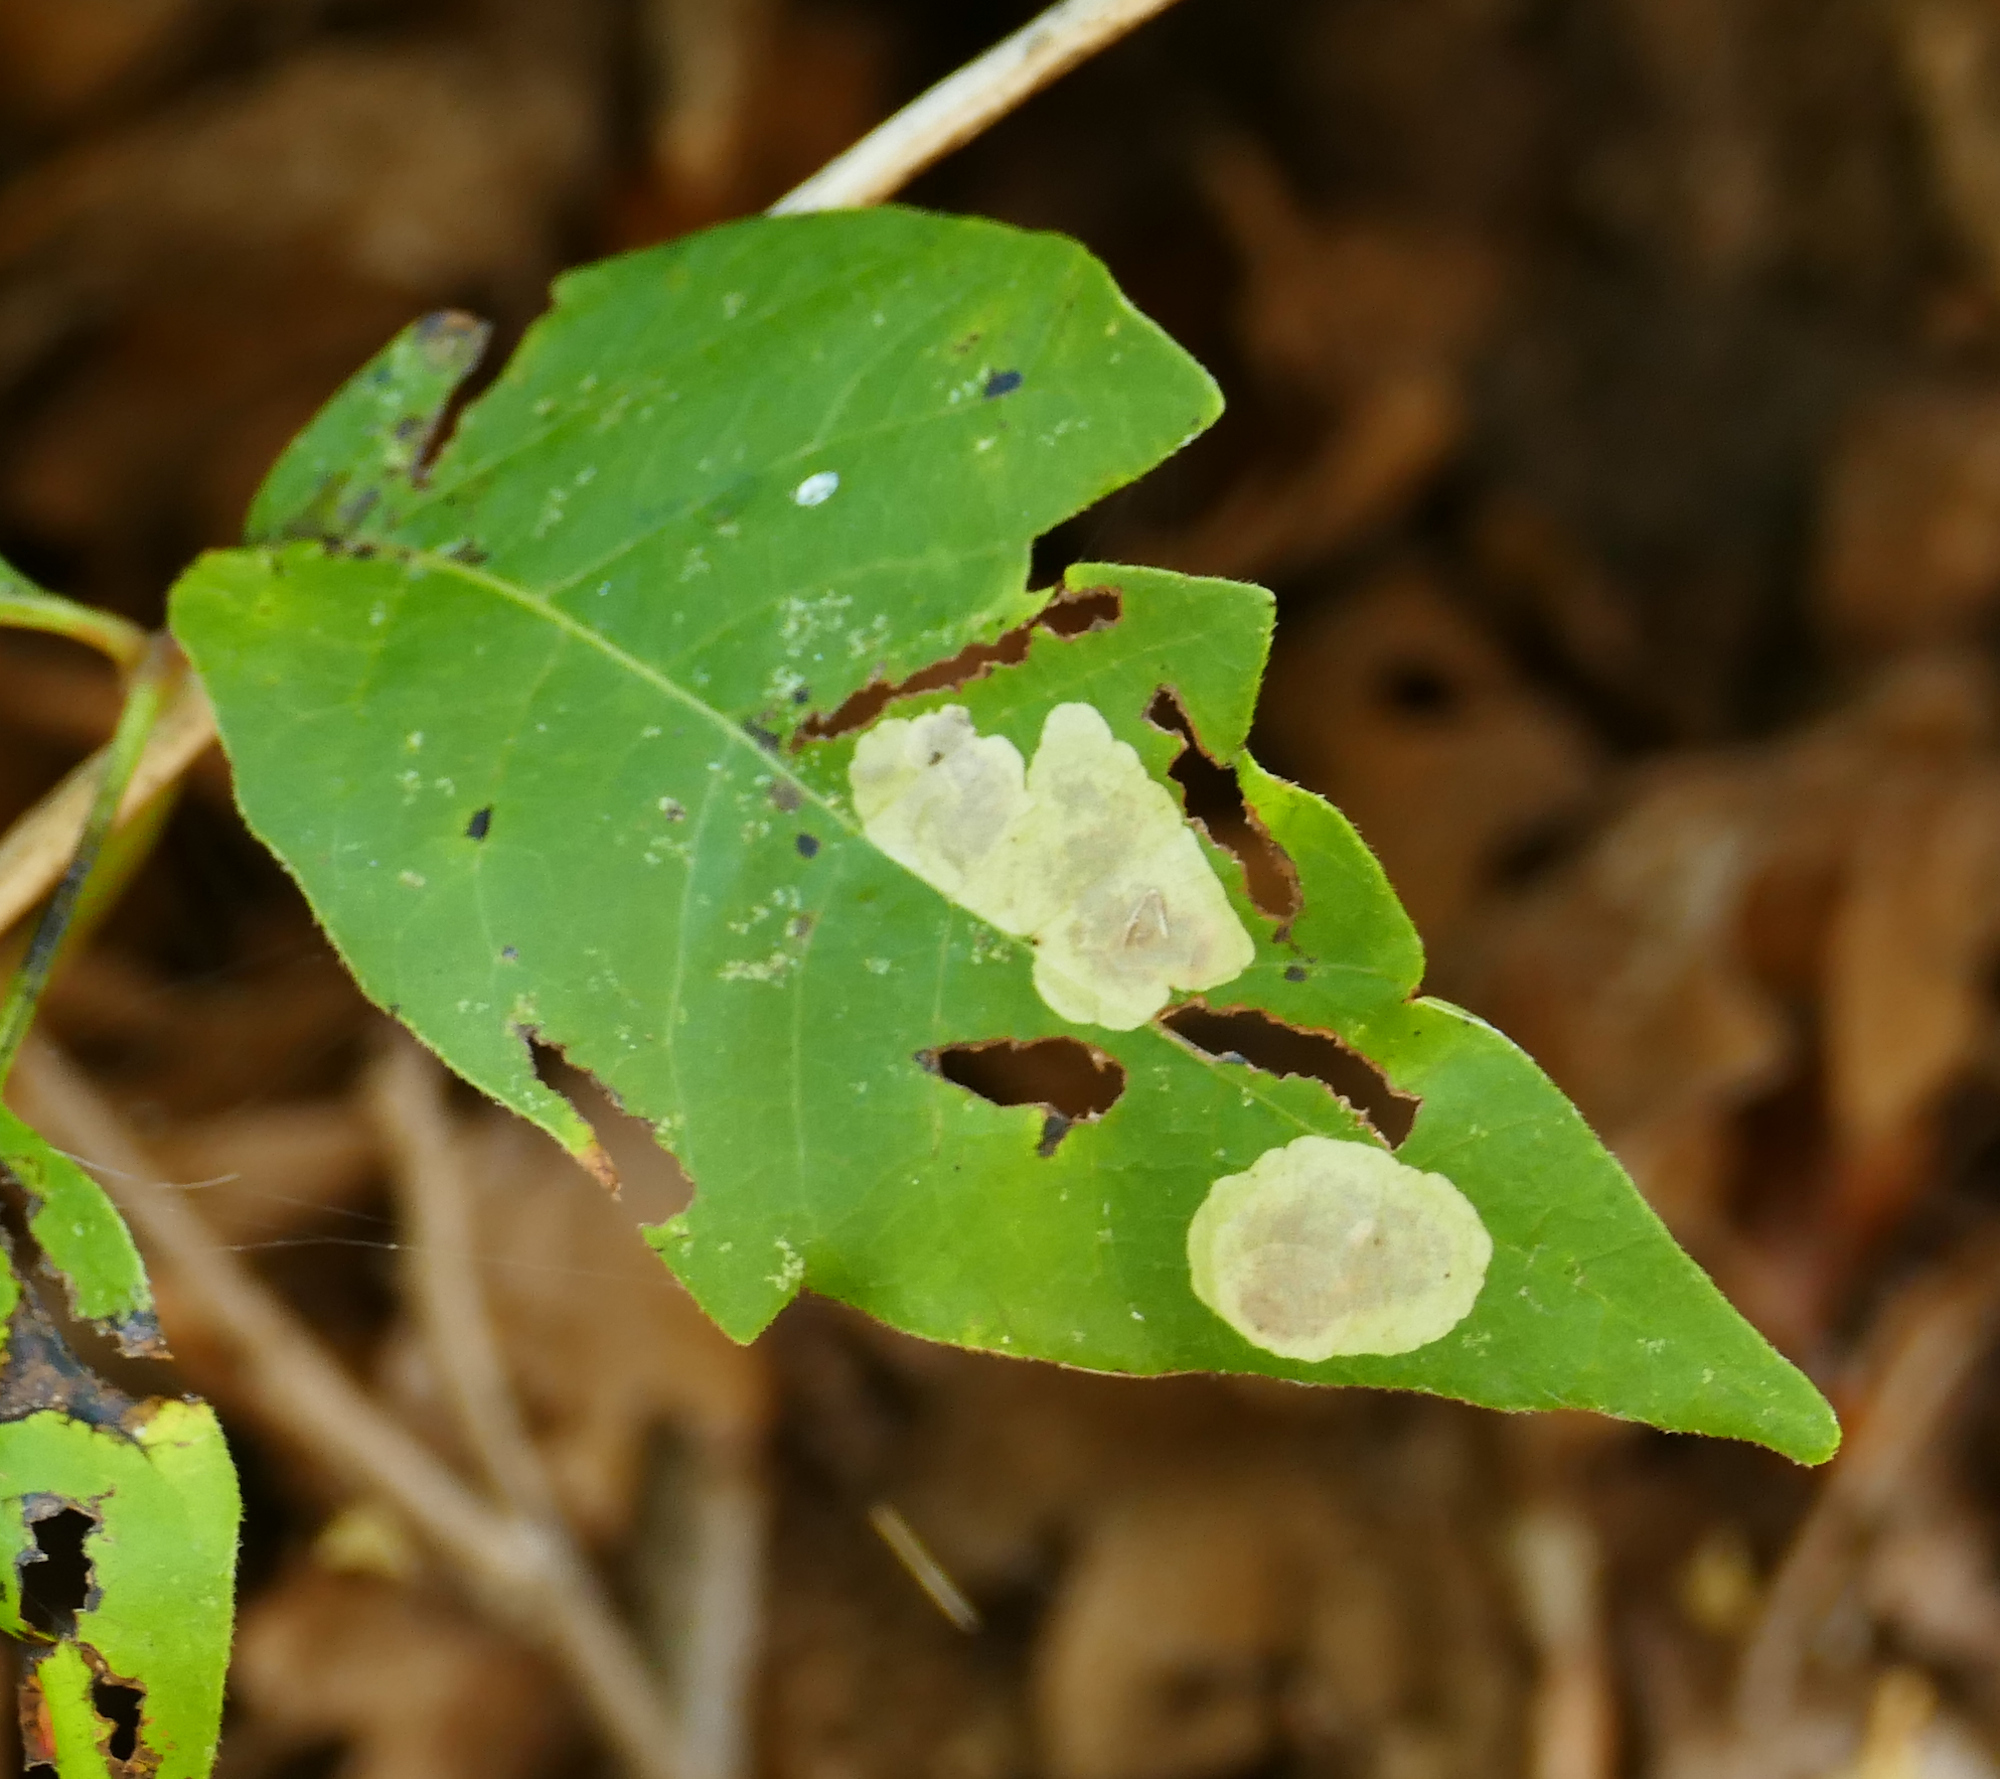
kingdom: Animalia
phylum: Arthropoda
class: Insecta
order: Lepidoptera
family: Gracillariidae
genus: Cameraria
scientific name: Cameraria guttifinitella
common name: Poison ivy leaf-miner moth
